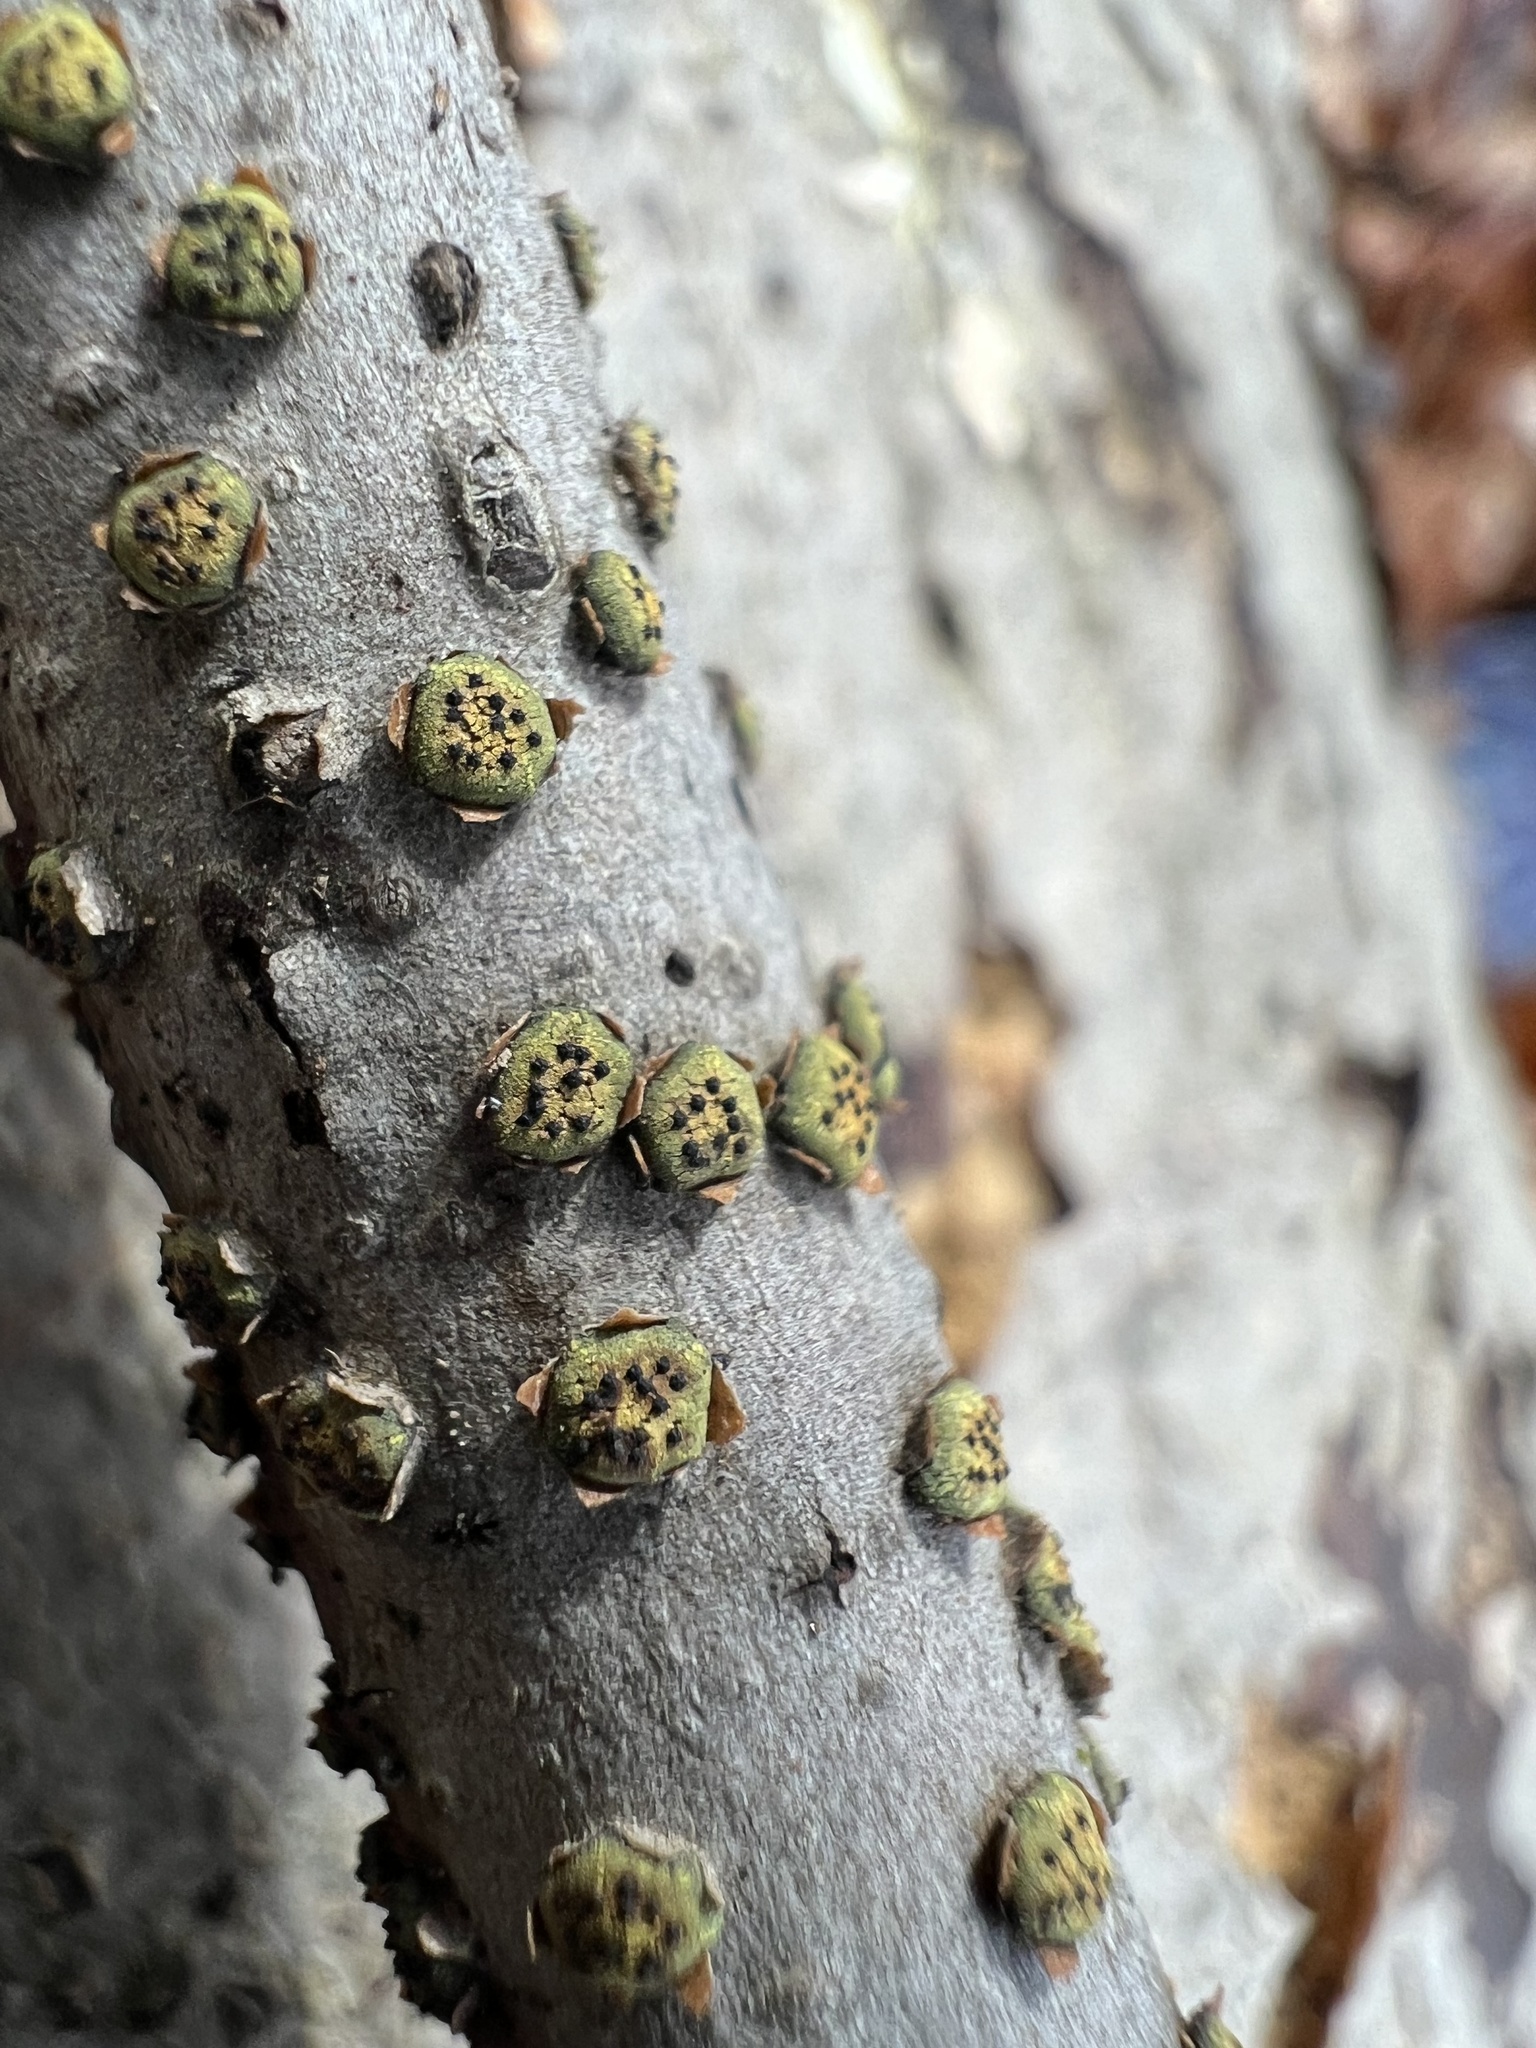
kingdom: Fungi
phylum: Ascomycota
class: Sordariomycetes
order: Xylariales
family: Diatrypaceae
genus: Diatrype
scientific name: Diatrype virescens
